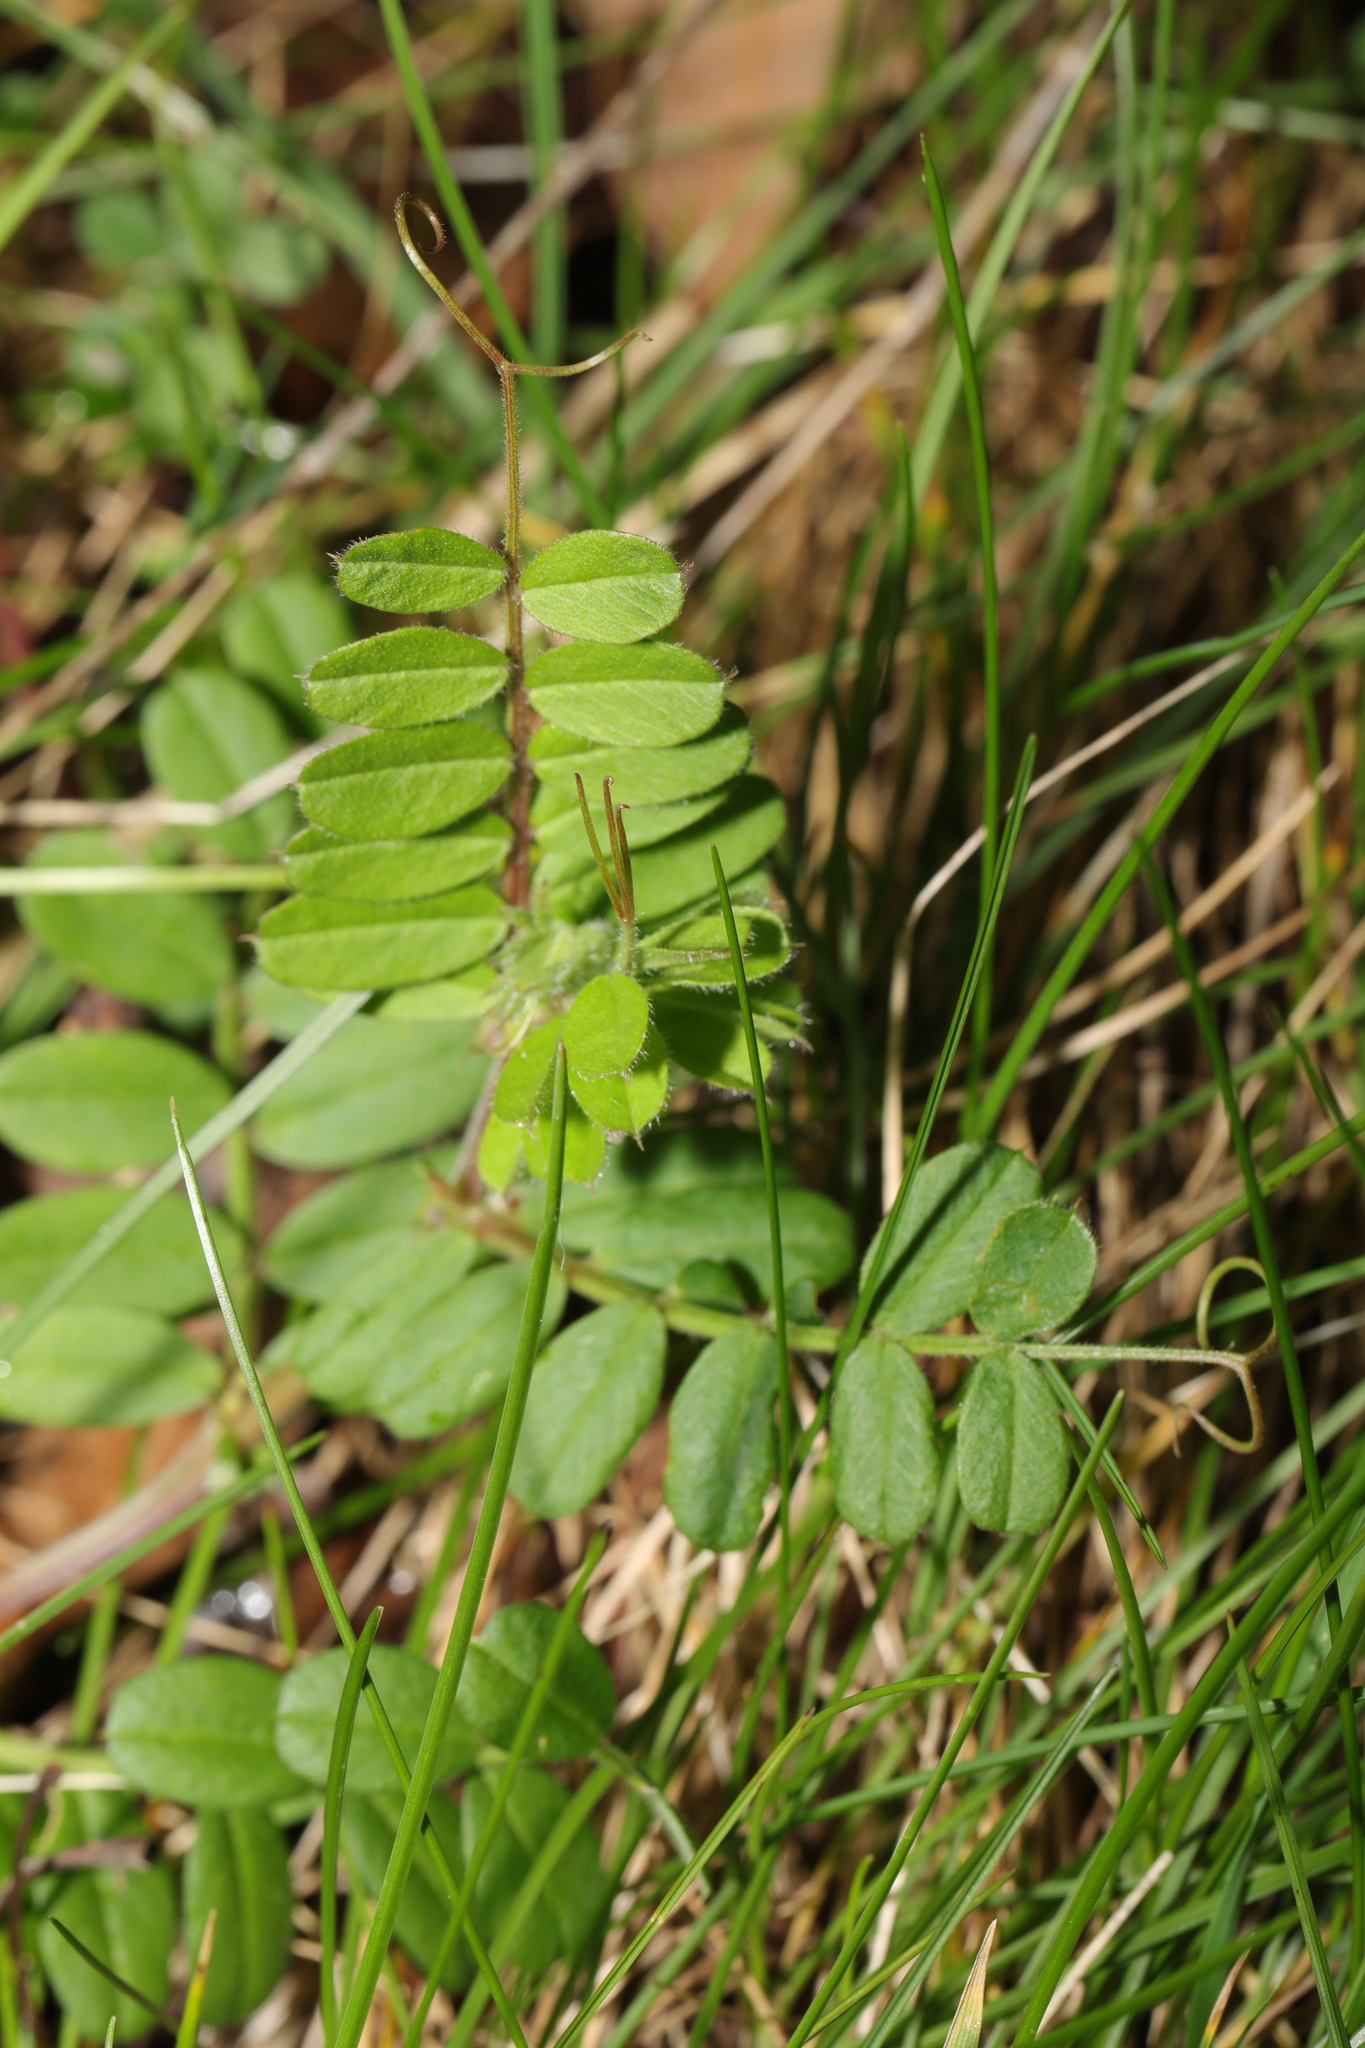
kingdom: Plantae
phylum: Tracheophyta
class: Magnoliopsida
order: Fabales
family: Fabaceae
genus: Vicia
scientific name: Vicia sepium
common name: Bush vetch
